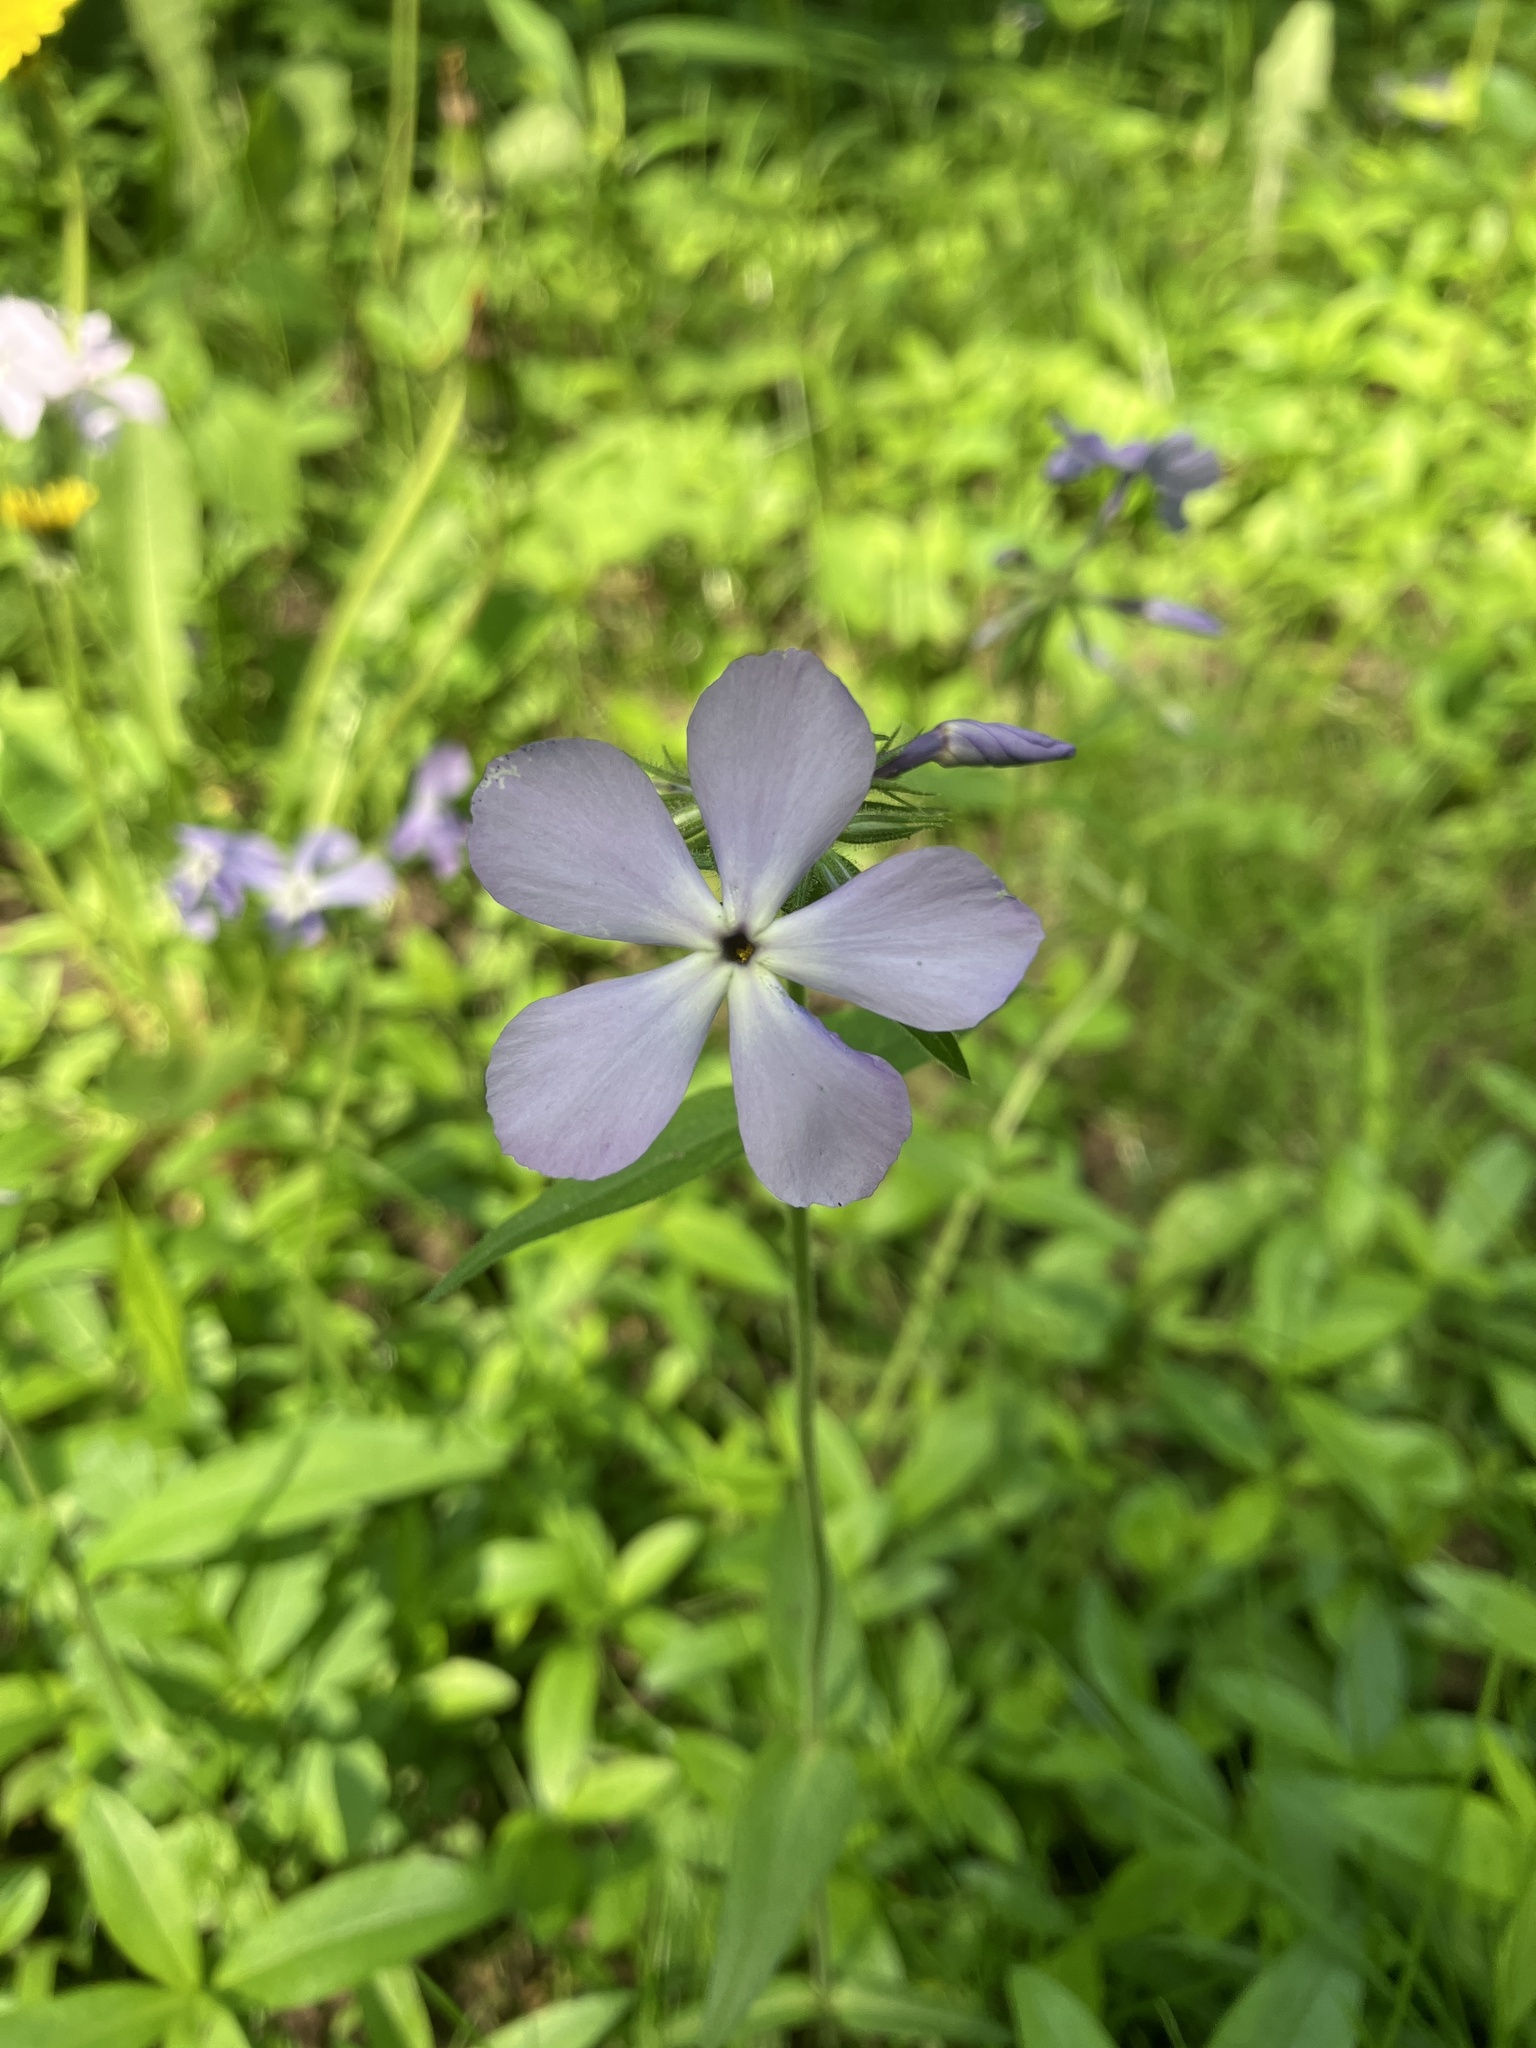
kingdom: Plantae
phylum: Tracheophyta
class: Magnoliopsida
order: Ericales
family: Polemoniaceae
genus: Phlox
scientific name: Phlox divaricata
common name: Blue phlox
